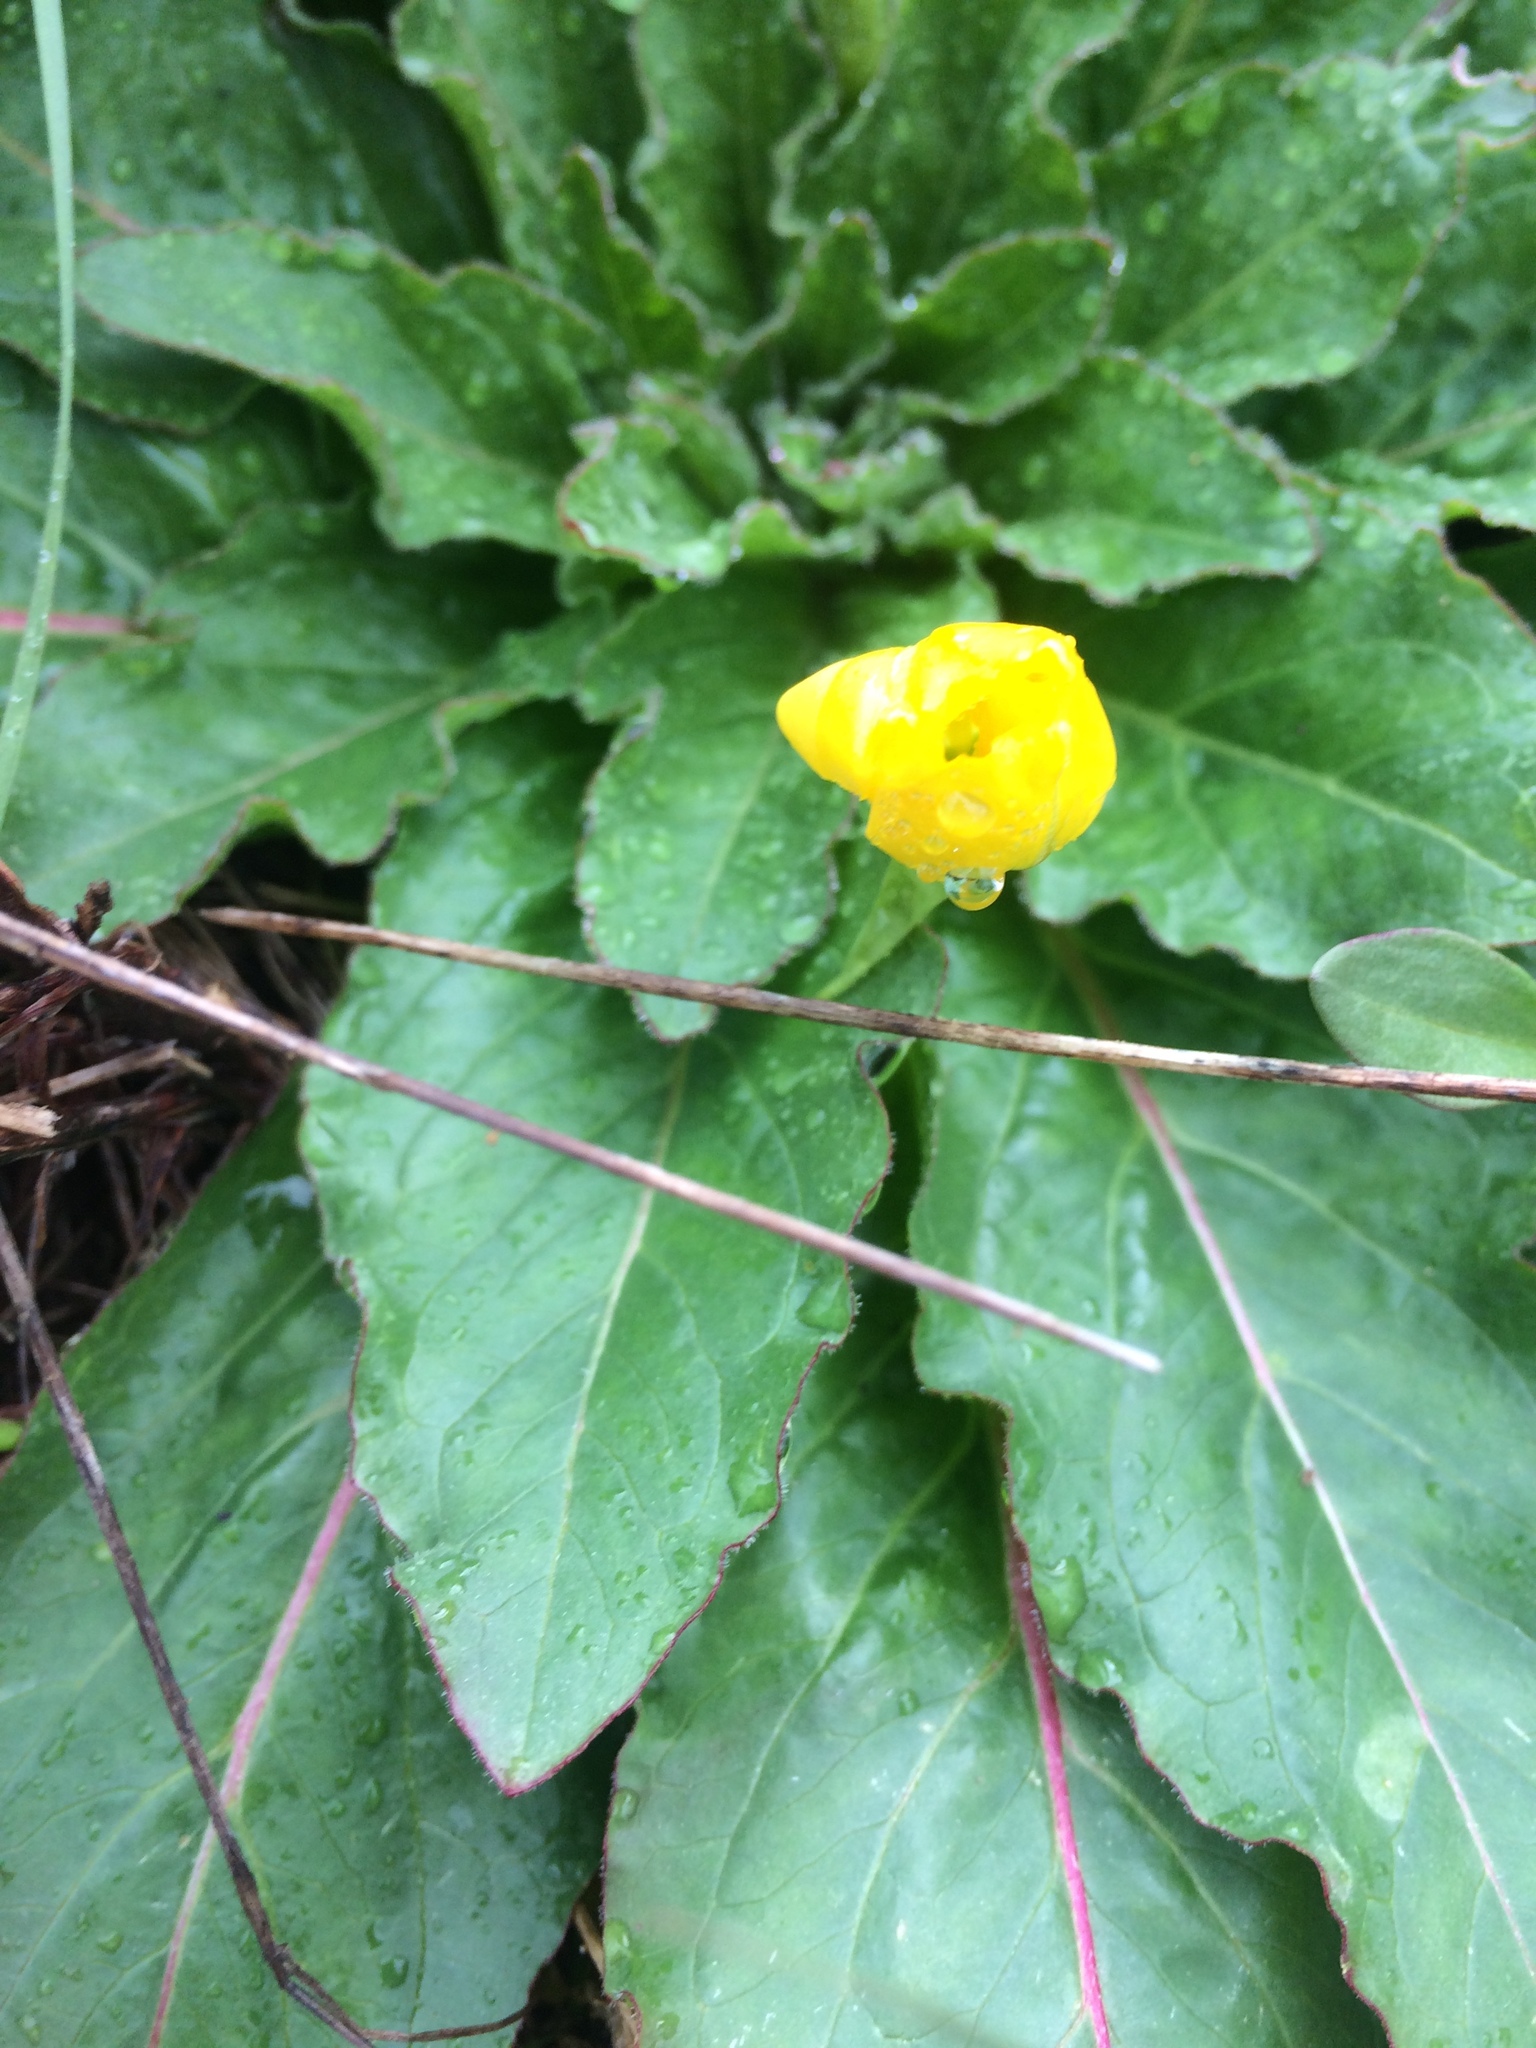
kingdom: Plantae
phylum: Tracheophyta
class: Magnoliopsida
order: Myrtales
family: Onagraceae
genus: Taraxia
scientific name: Taraxia ovata
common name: Goldeneggs
